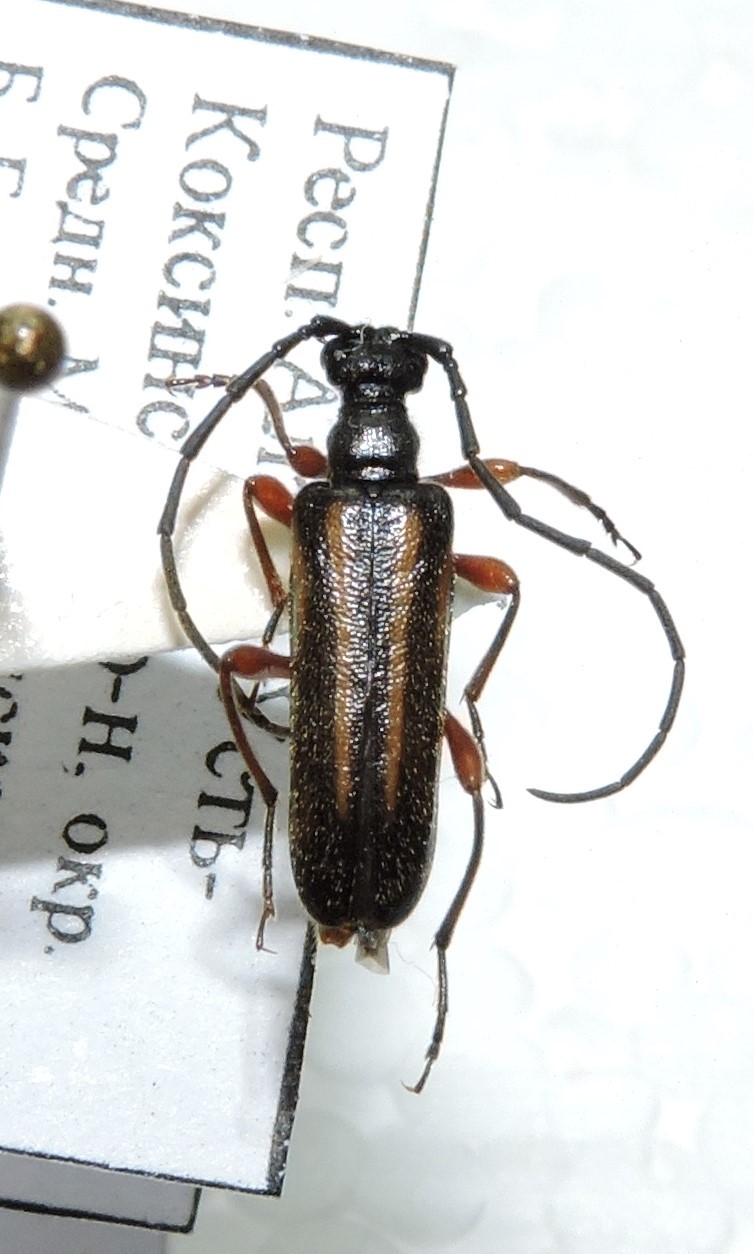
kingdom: Animalia
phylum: Arthropoda
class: Insecta
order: Coleoptera
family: Cerambycidae
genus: Cornumutila
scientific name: Cornumutila lineata
